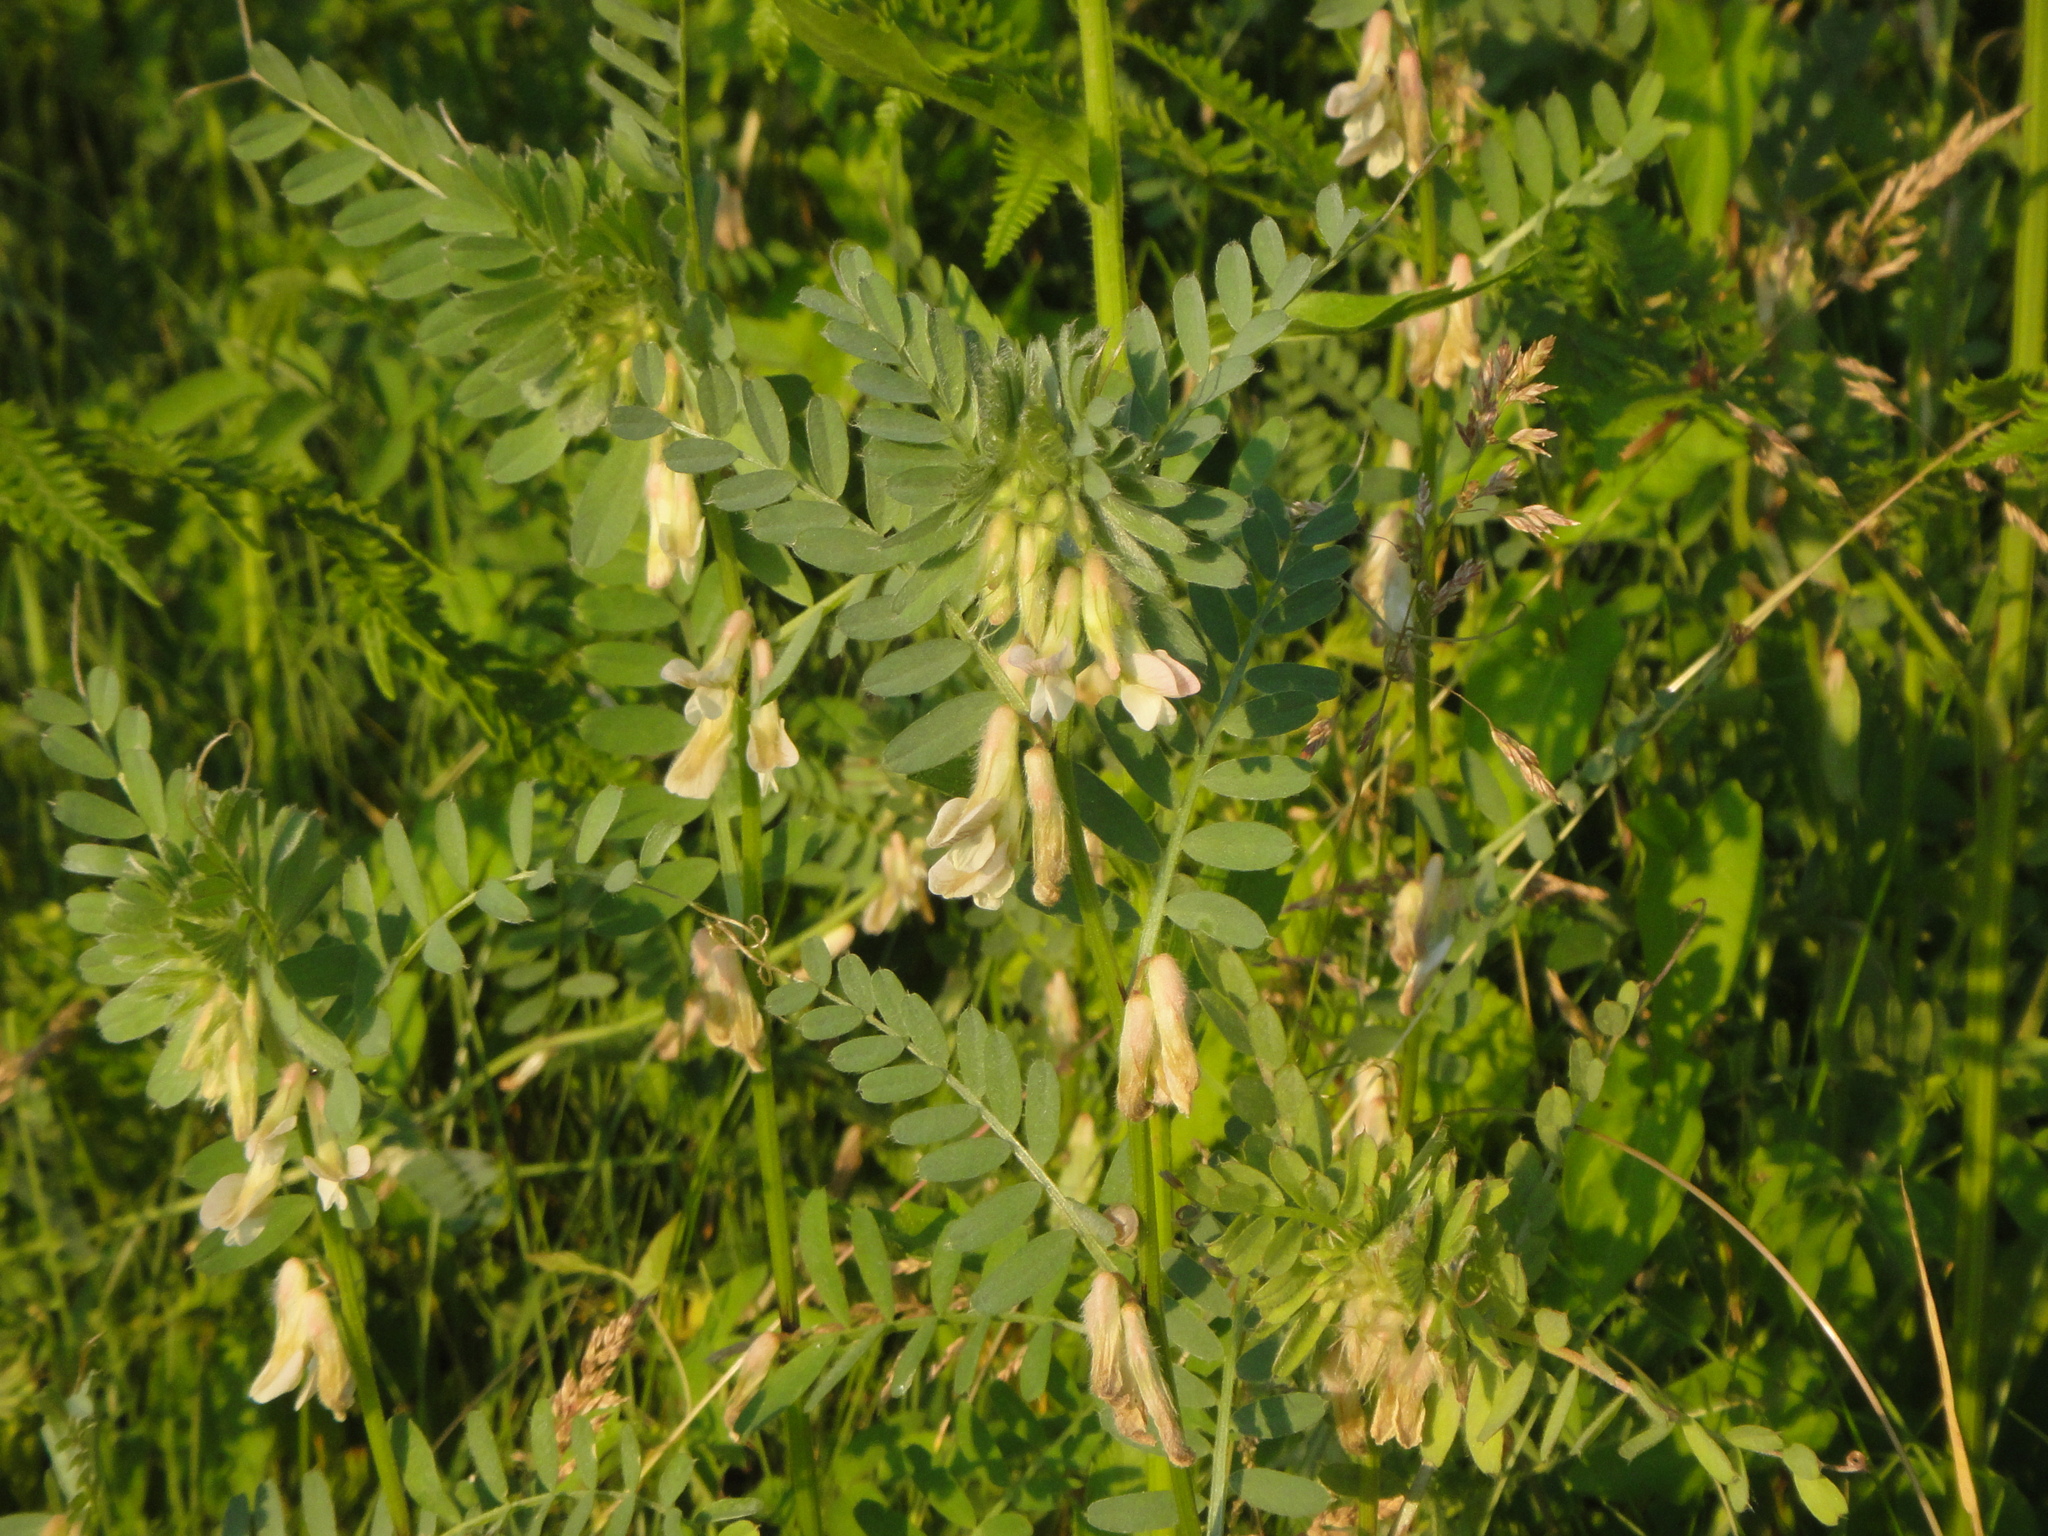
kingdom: Plantae
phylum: Tracheophyta
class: Magnoliopsida
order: Fabales
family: Fabaceae
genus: Vicia
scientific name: Vicia pannonica
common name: Hungarian vetch
